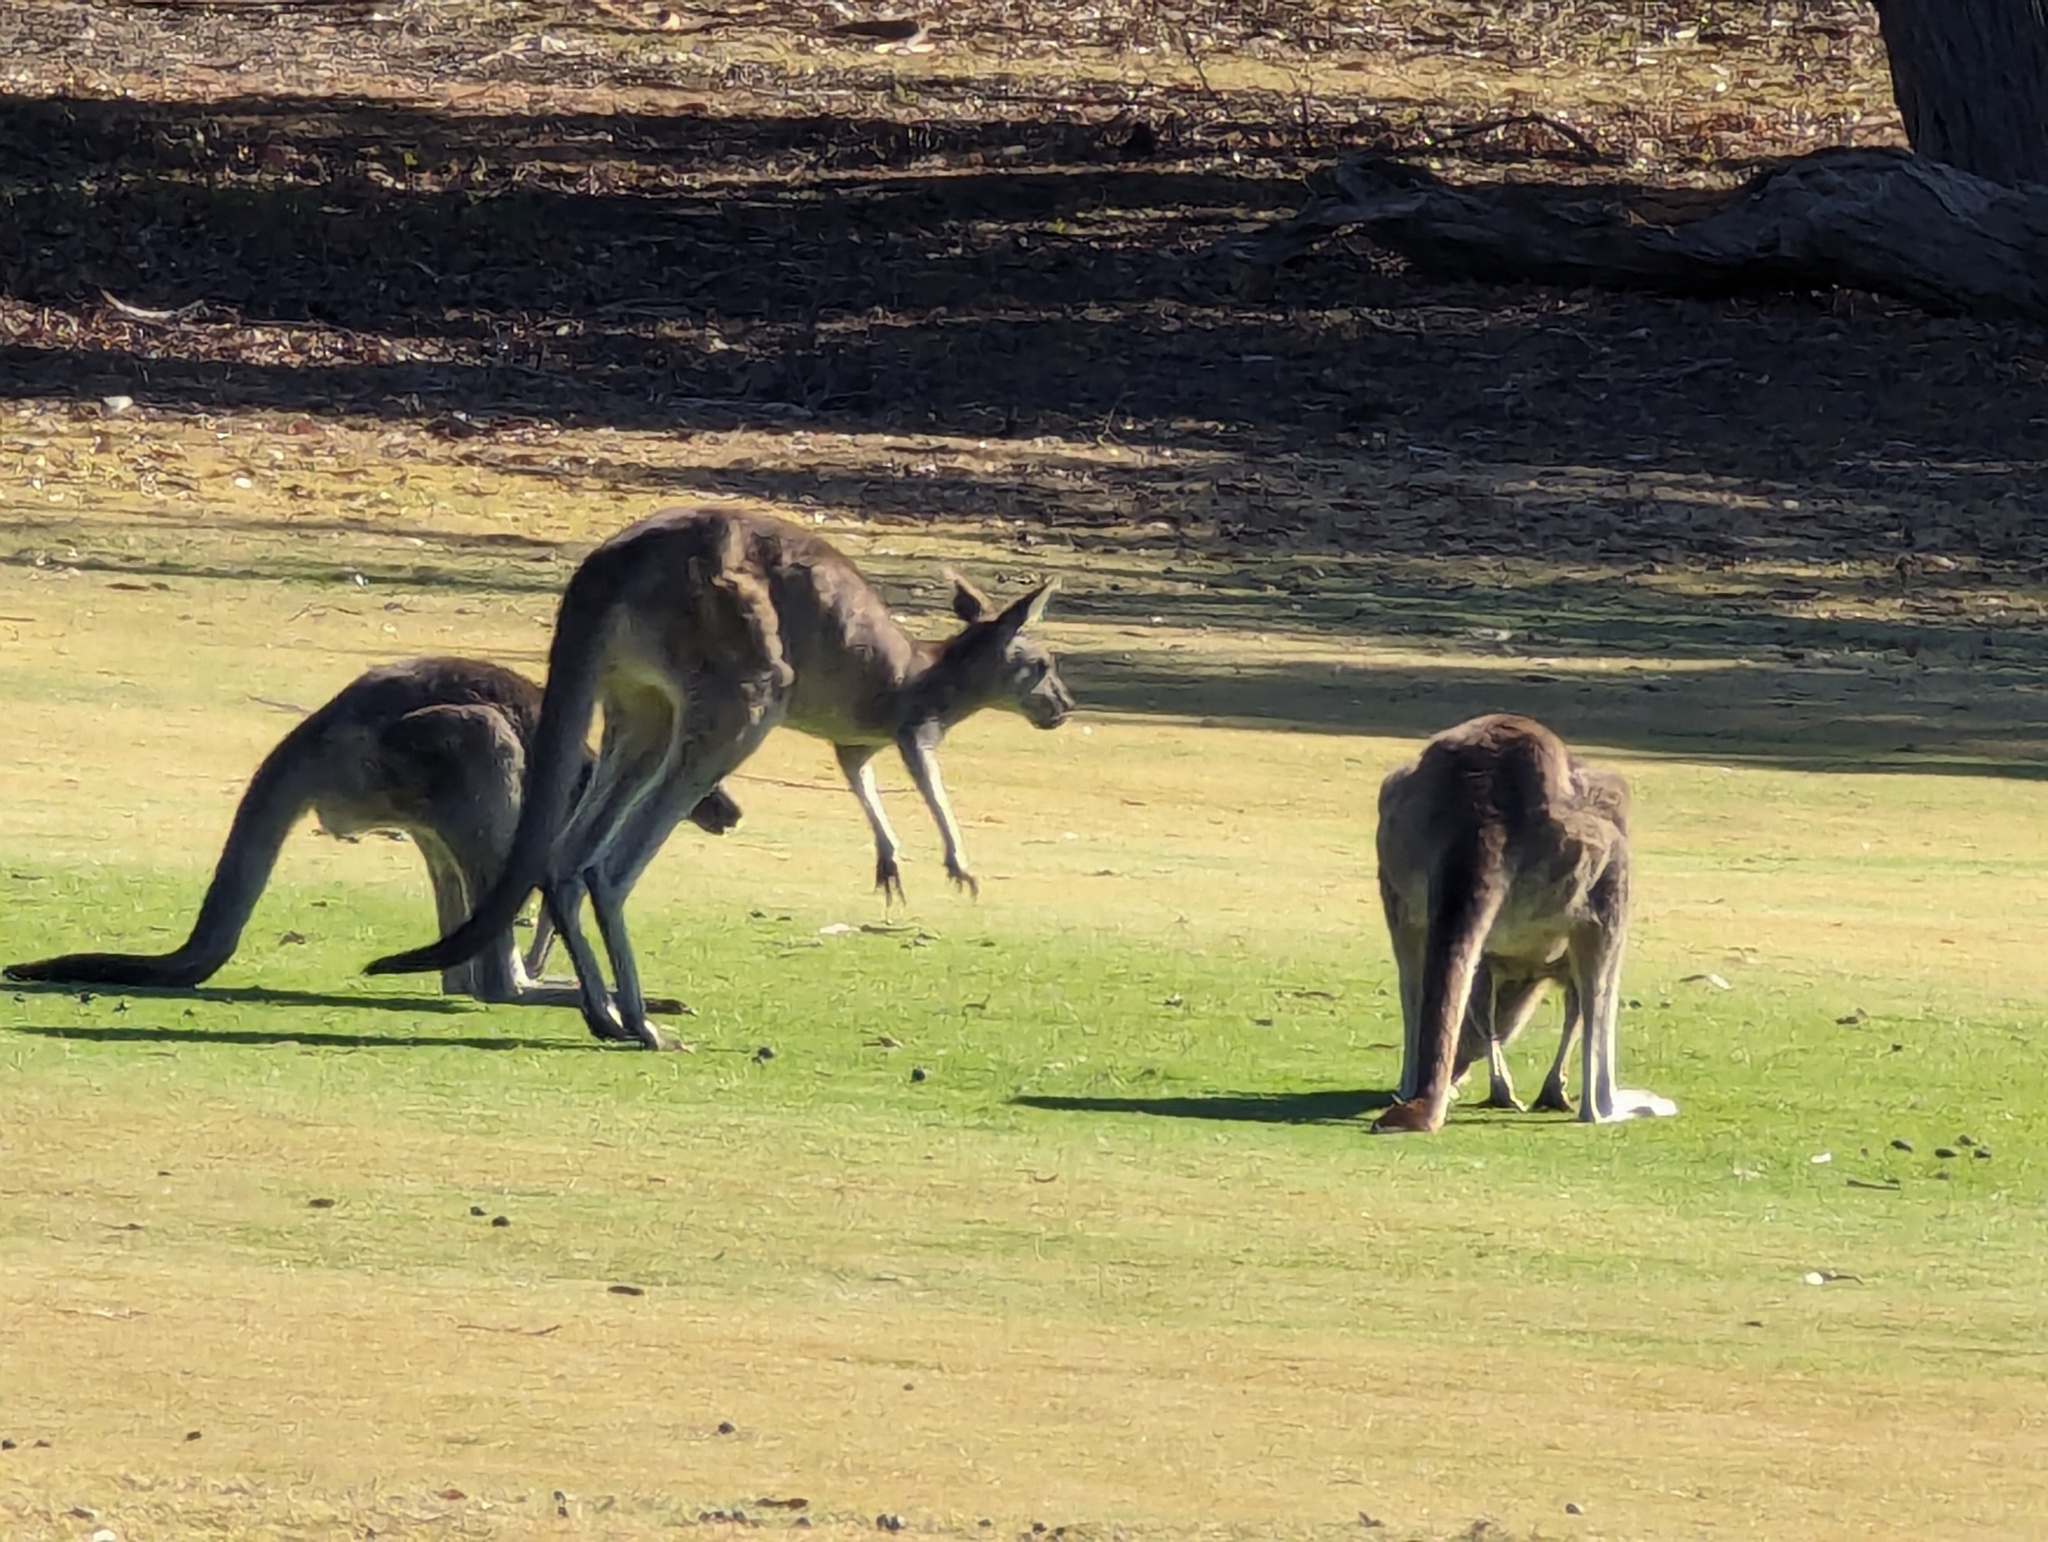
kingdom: Animalia
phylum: Chordata
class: Mammalia
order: Diprotodontia
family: Macropodidae
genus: Macropus
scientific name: Macropus giganteus
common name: Eastern grey kangaroo
